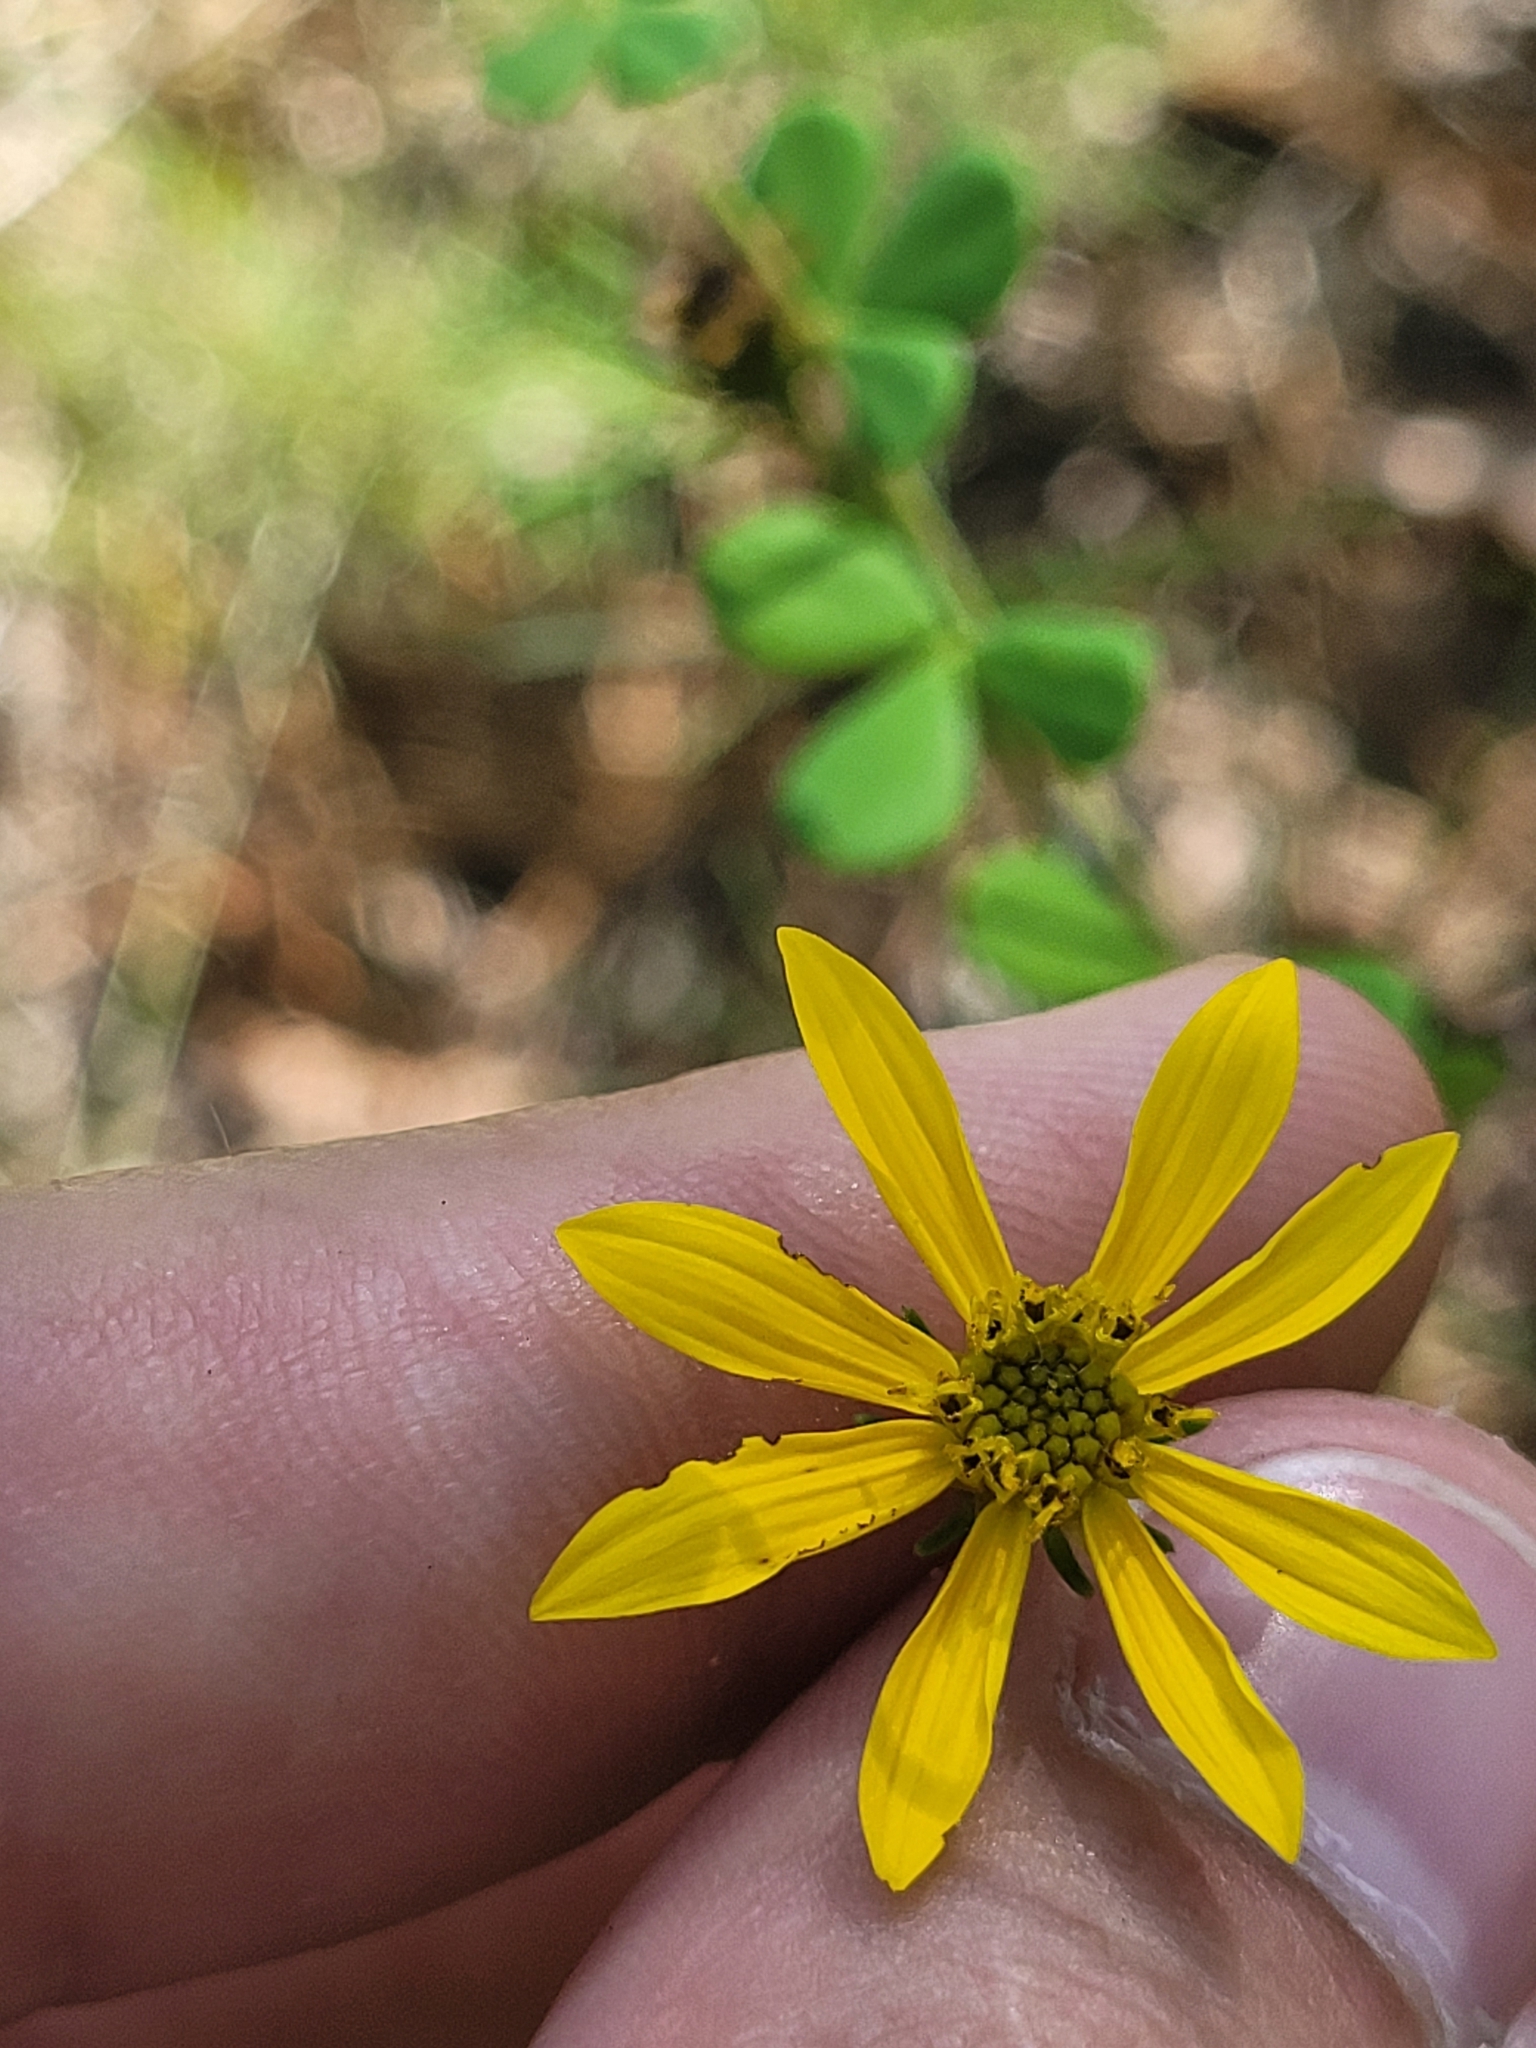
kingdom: Plantae
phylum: Tracheophyta
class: Magnoliopsida
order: Asterales
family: Asteraceae
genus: Coreopsis
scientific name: Coreopsis verticillata
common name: Whorled tickseed
